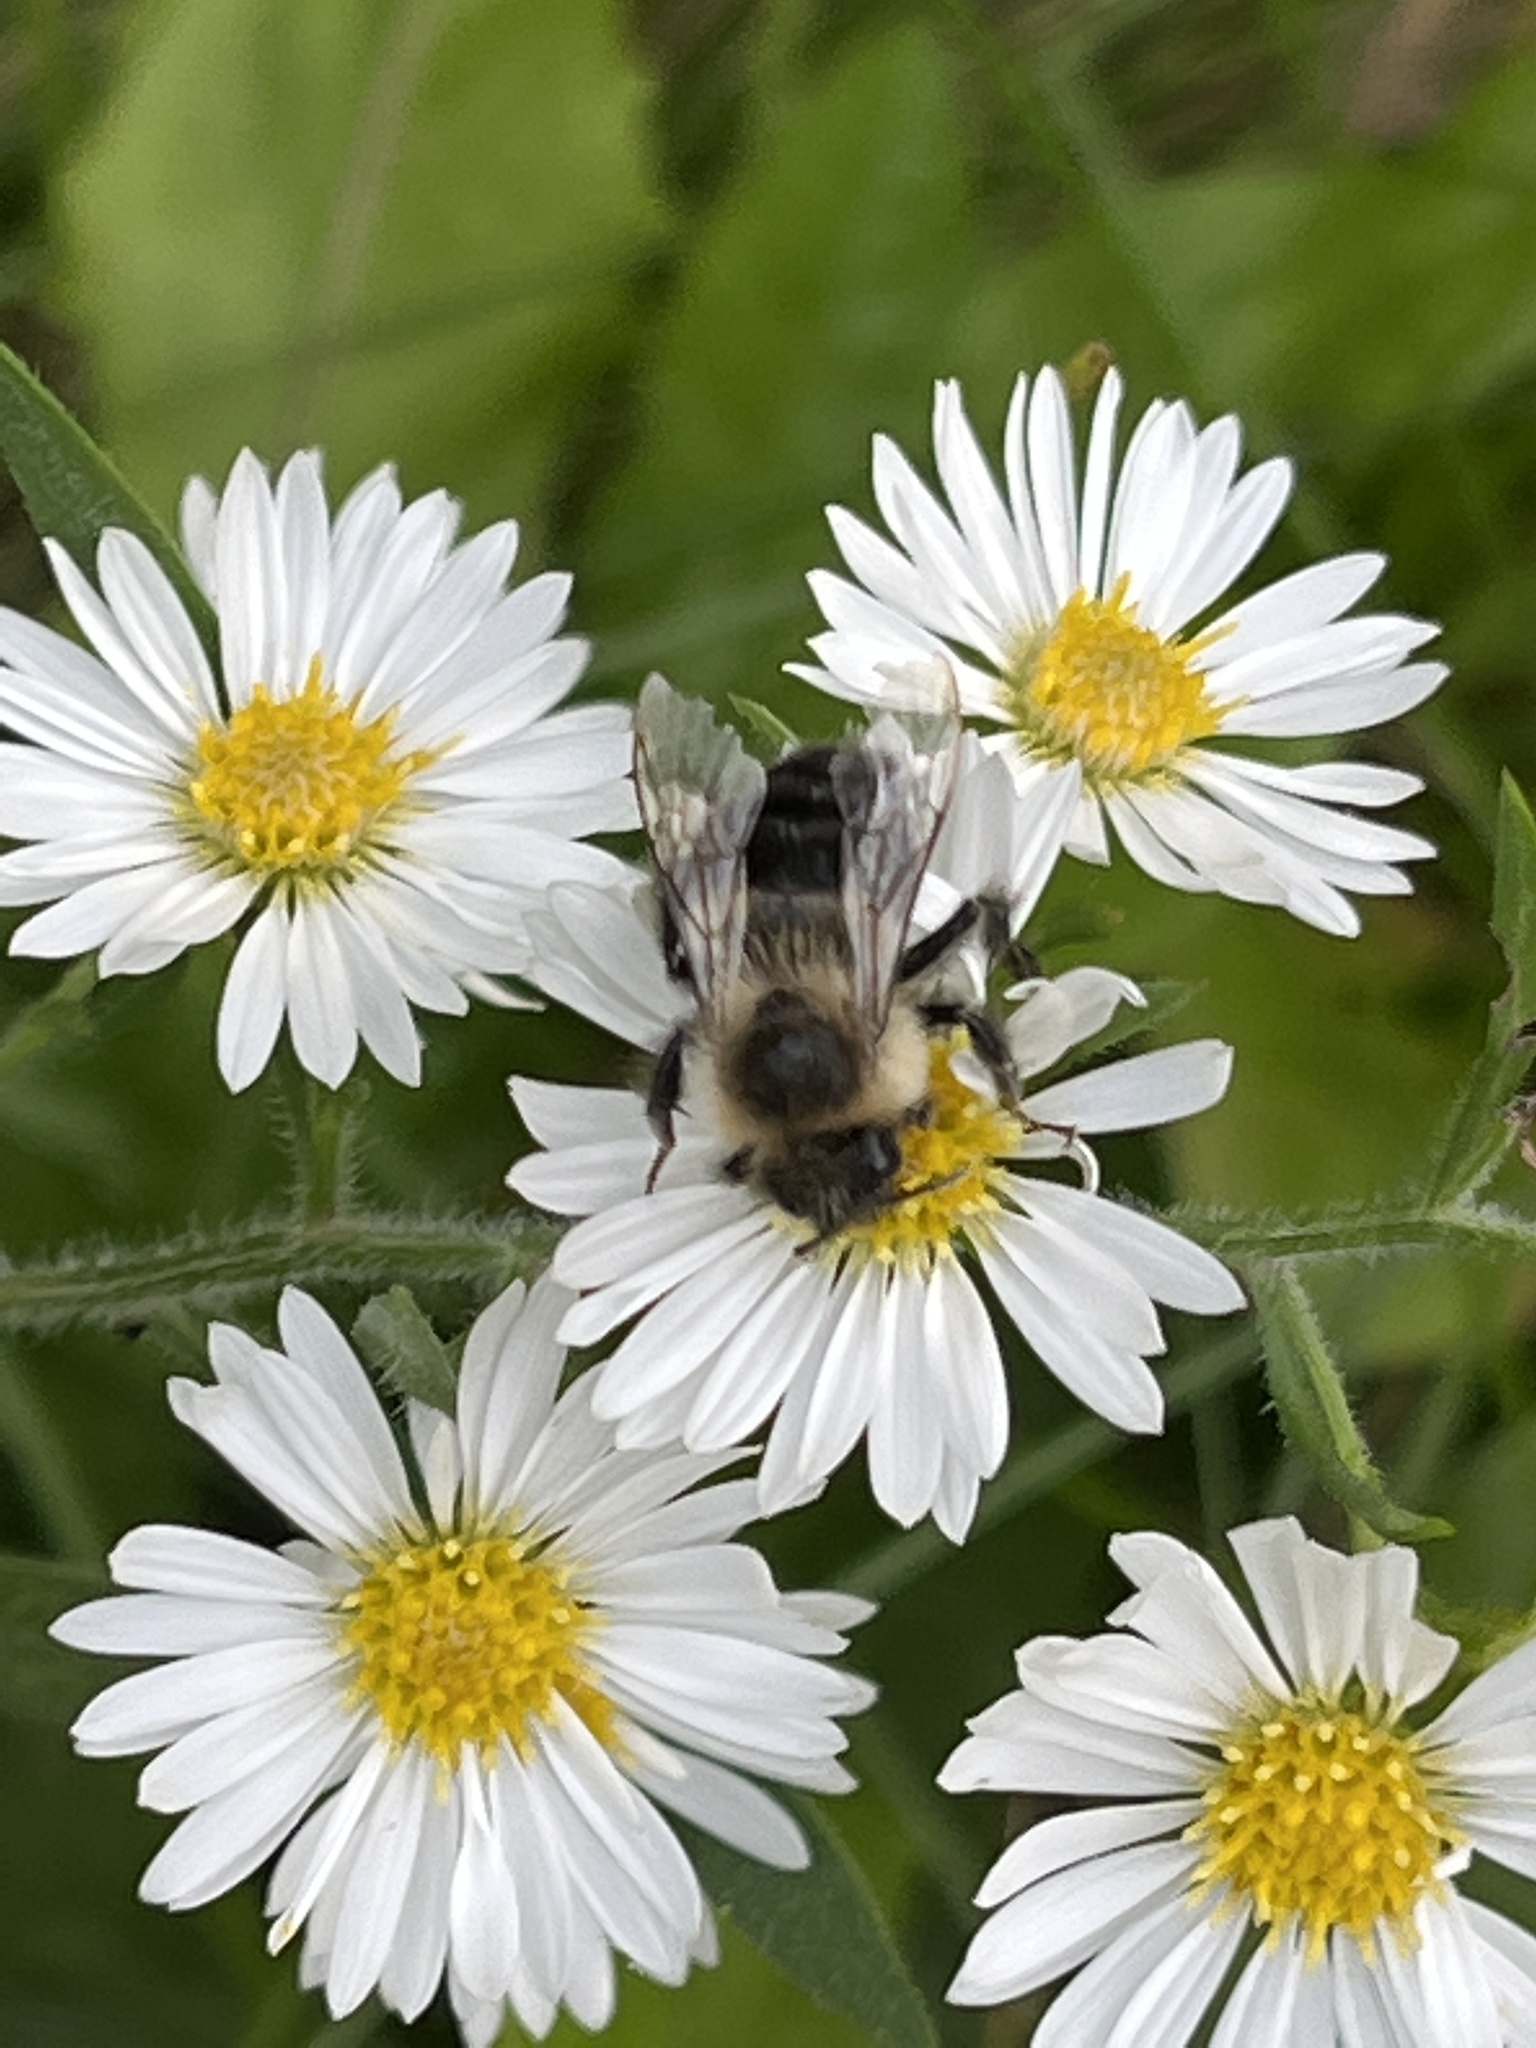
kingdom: Animalia
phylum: Arthropoda
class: Insecta
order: Hymenoptera
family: Apidae
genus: Bombus
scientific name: Bombus impatiens
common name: Common eastern bumble bee
